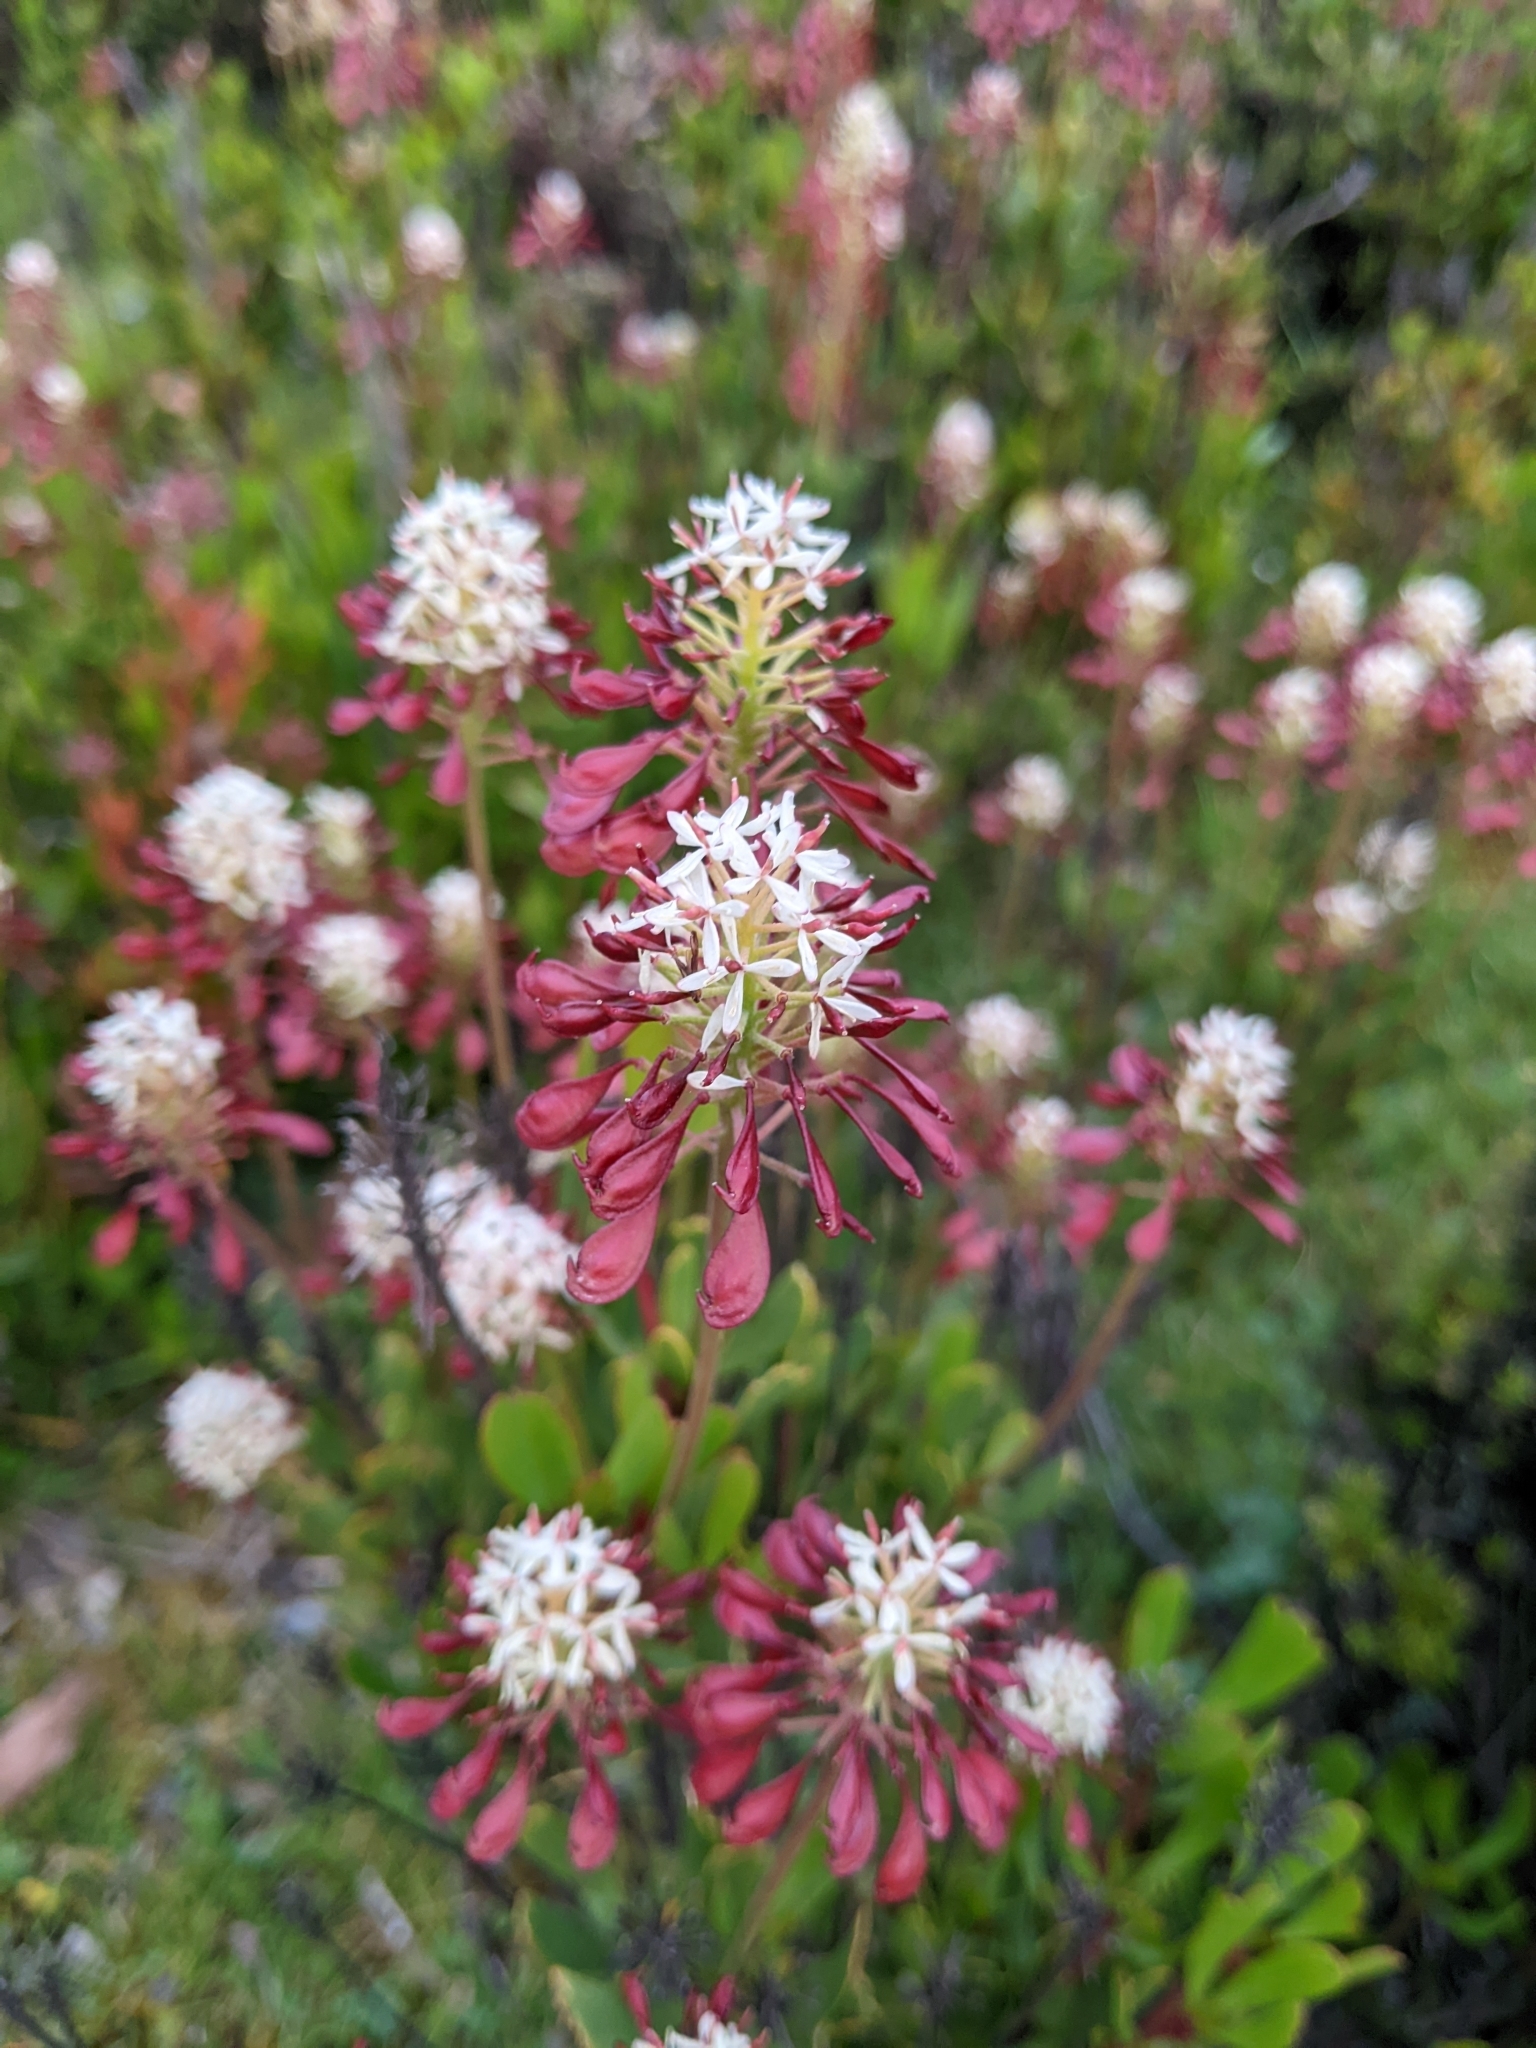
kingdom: Plantae
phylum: Tracheophyta
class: Magnoliopsida
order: Proteales
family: Proteaceae
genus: Bellendena
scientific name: Bellendena montana
